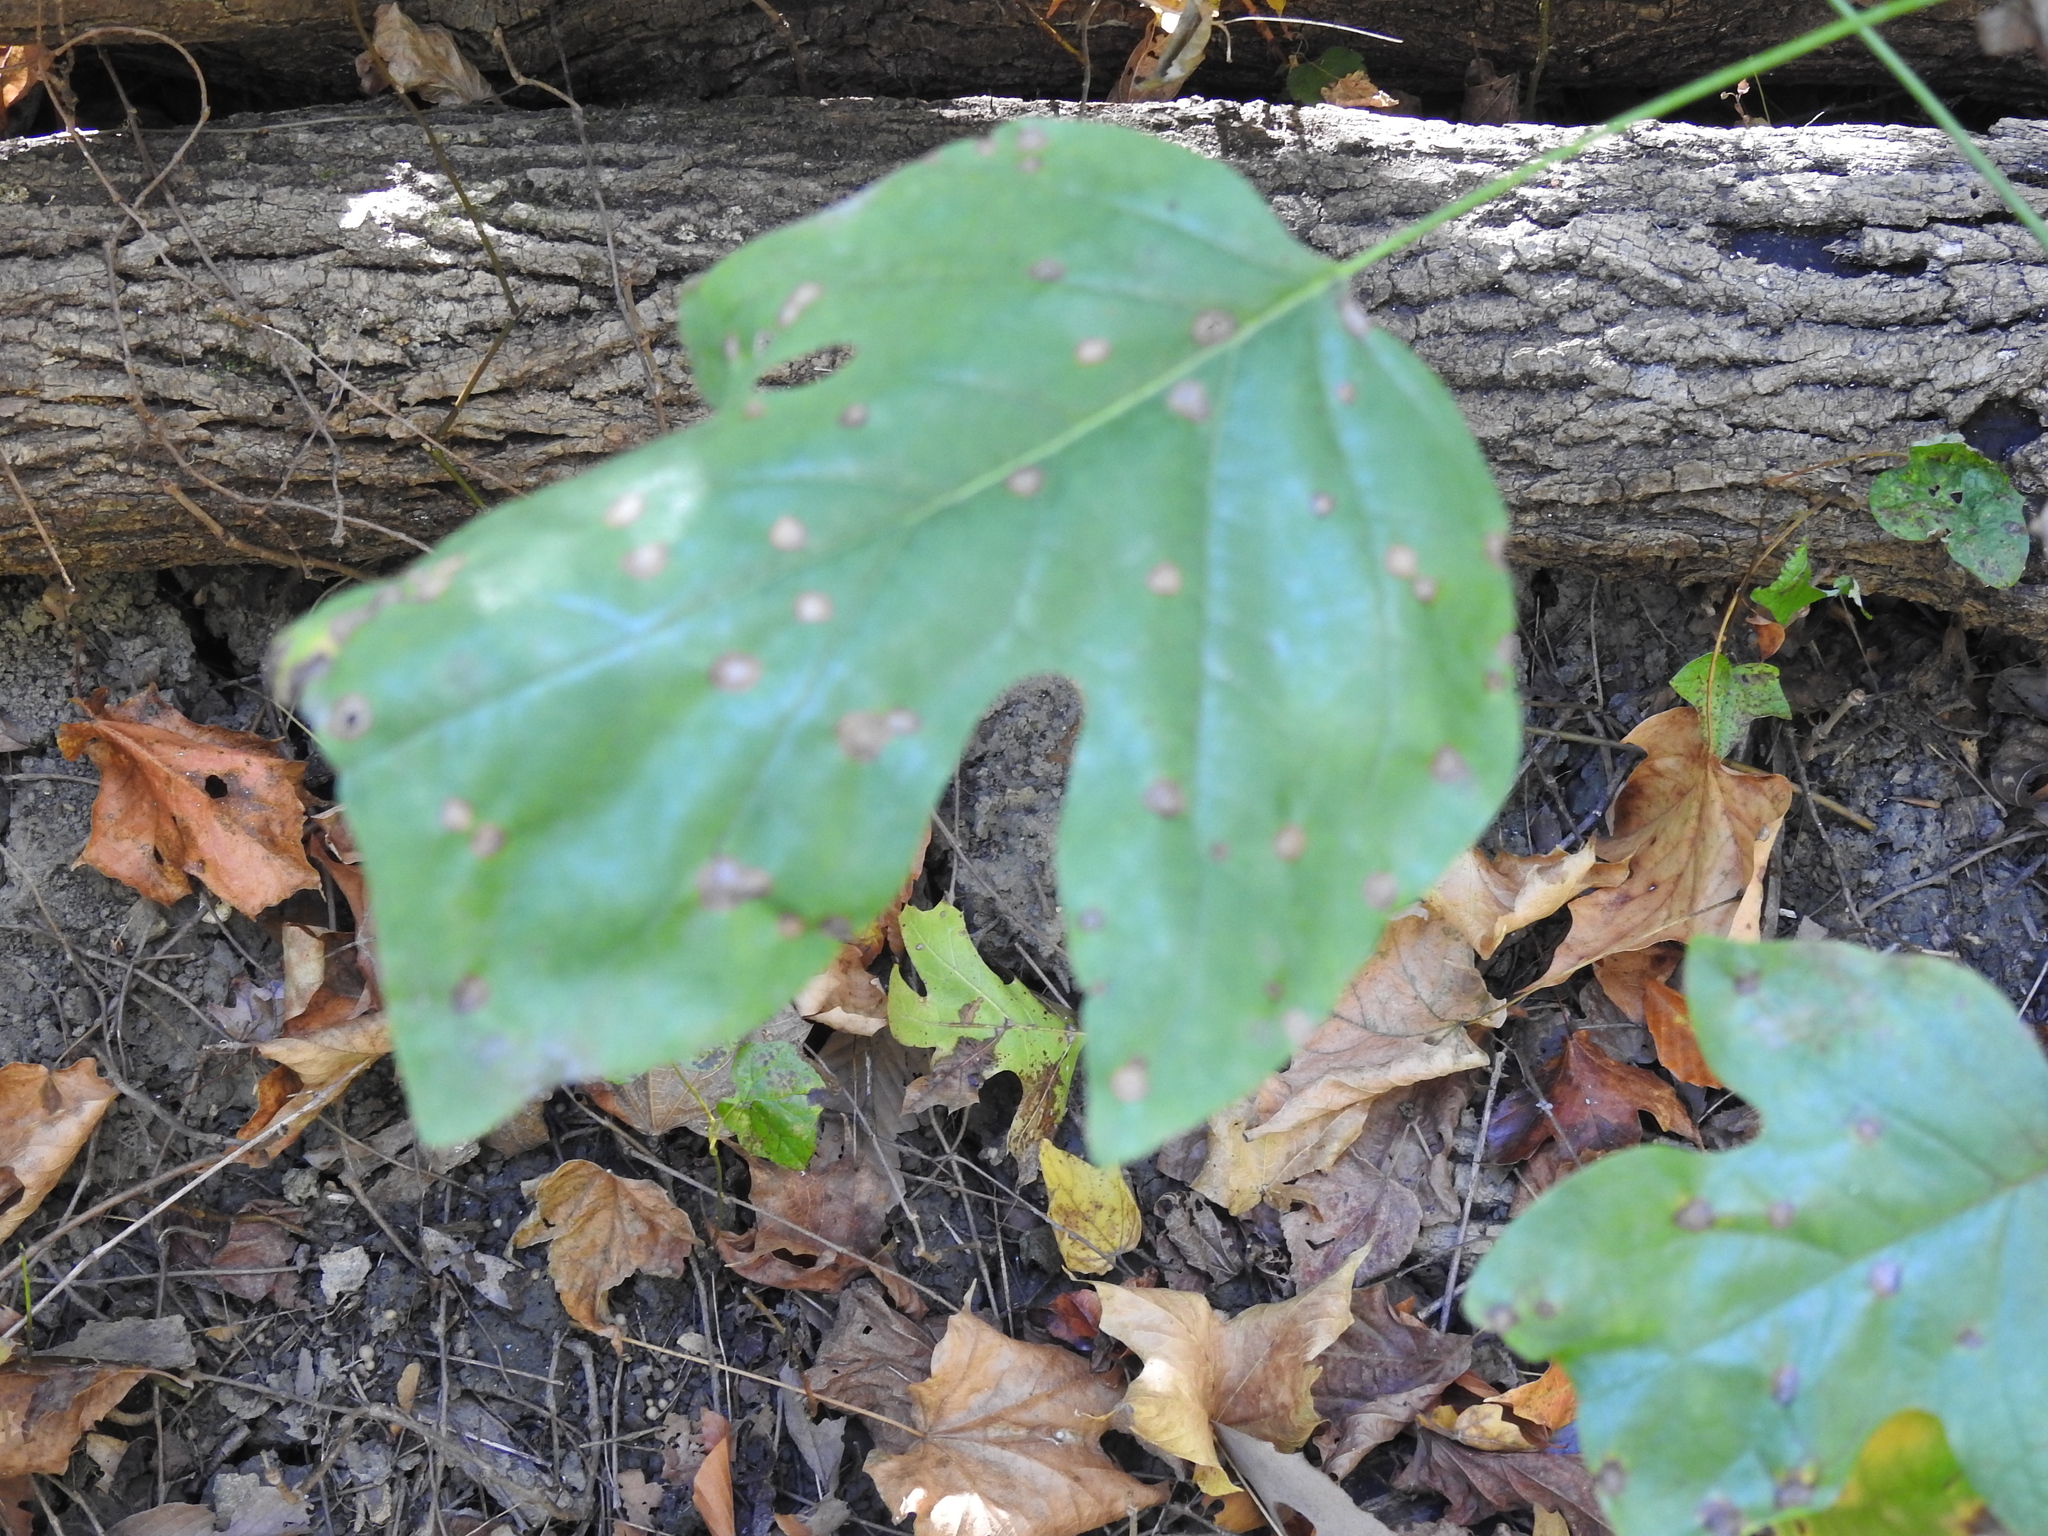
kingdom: Animalia
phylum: Arthropoda
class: Insecta
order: Diptera
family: Cecidomyiidae
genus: Resseliella
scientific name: Resseliella liriodendri
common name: Tulip tree leaf spot gall midge
